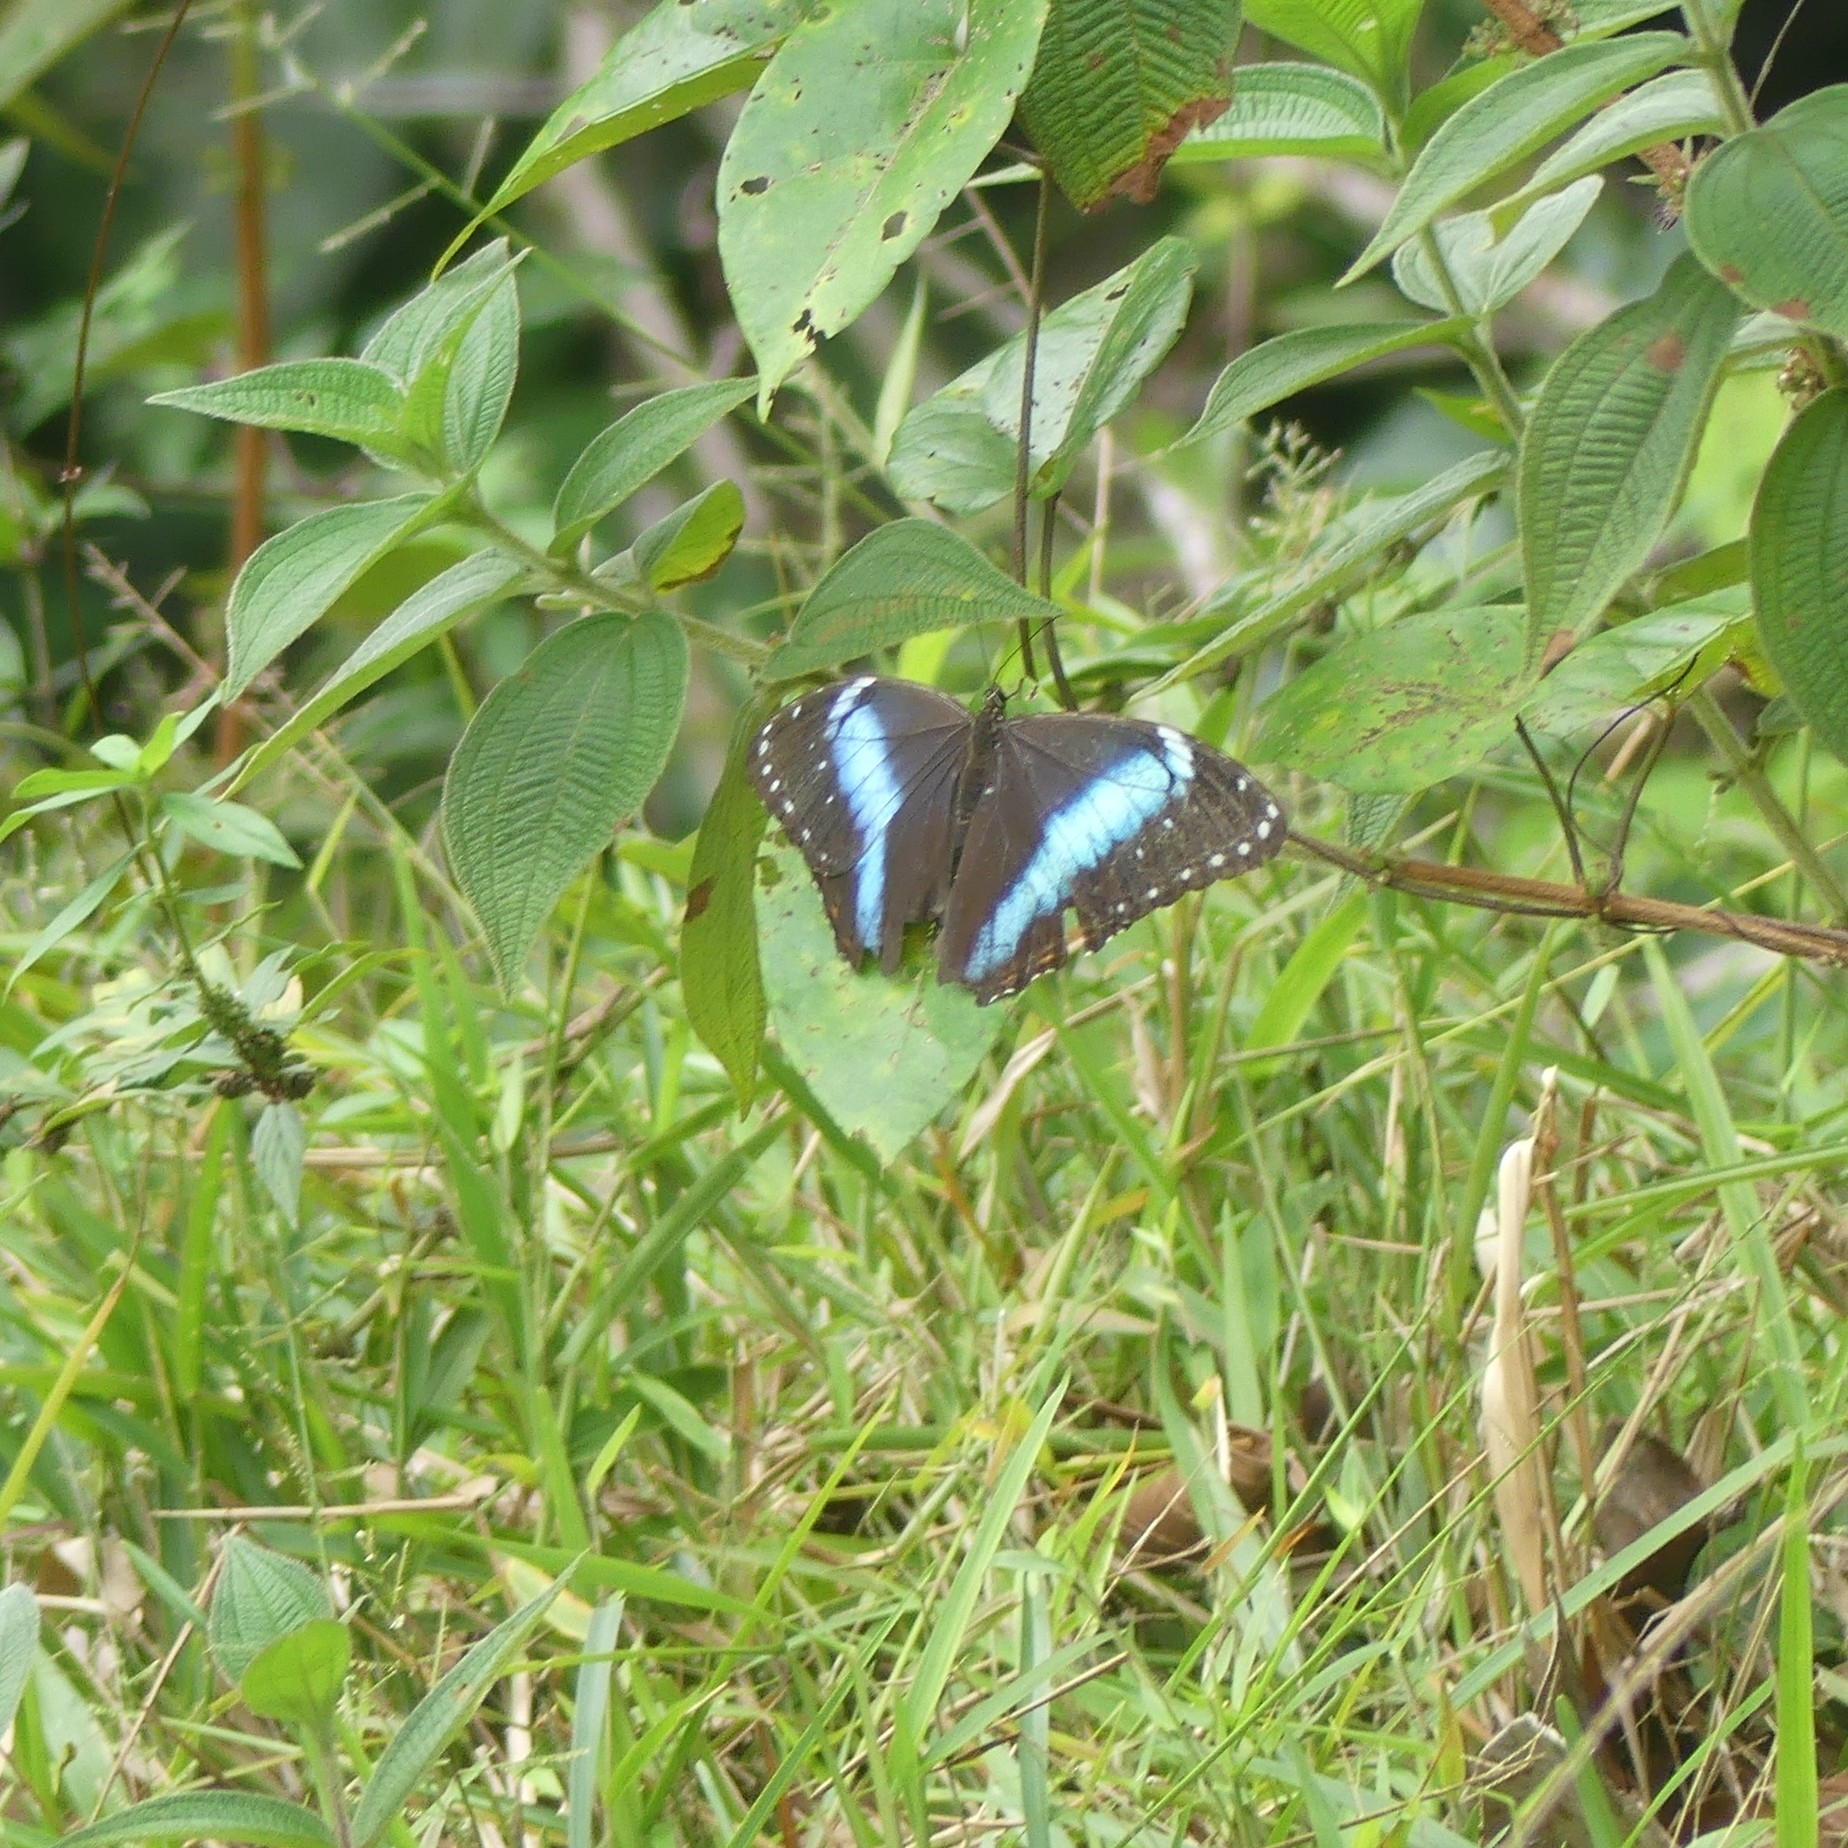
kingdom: Animalia
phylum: Arthropoda
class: Insecta
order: Lepidoptera
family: Nymphalidae
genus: Morpho
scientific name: Morpho helenor
